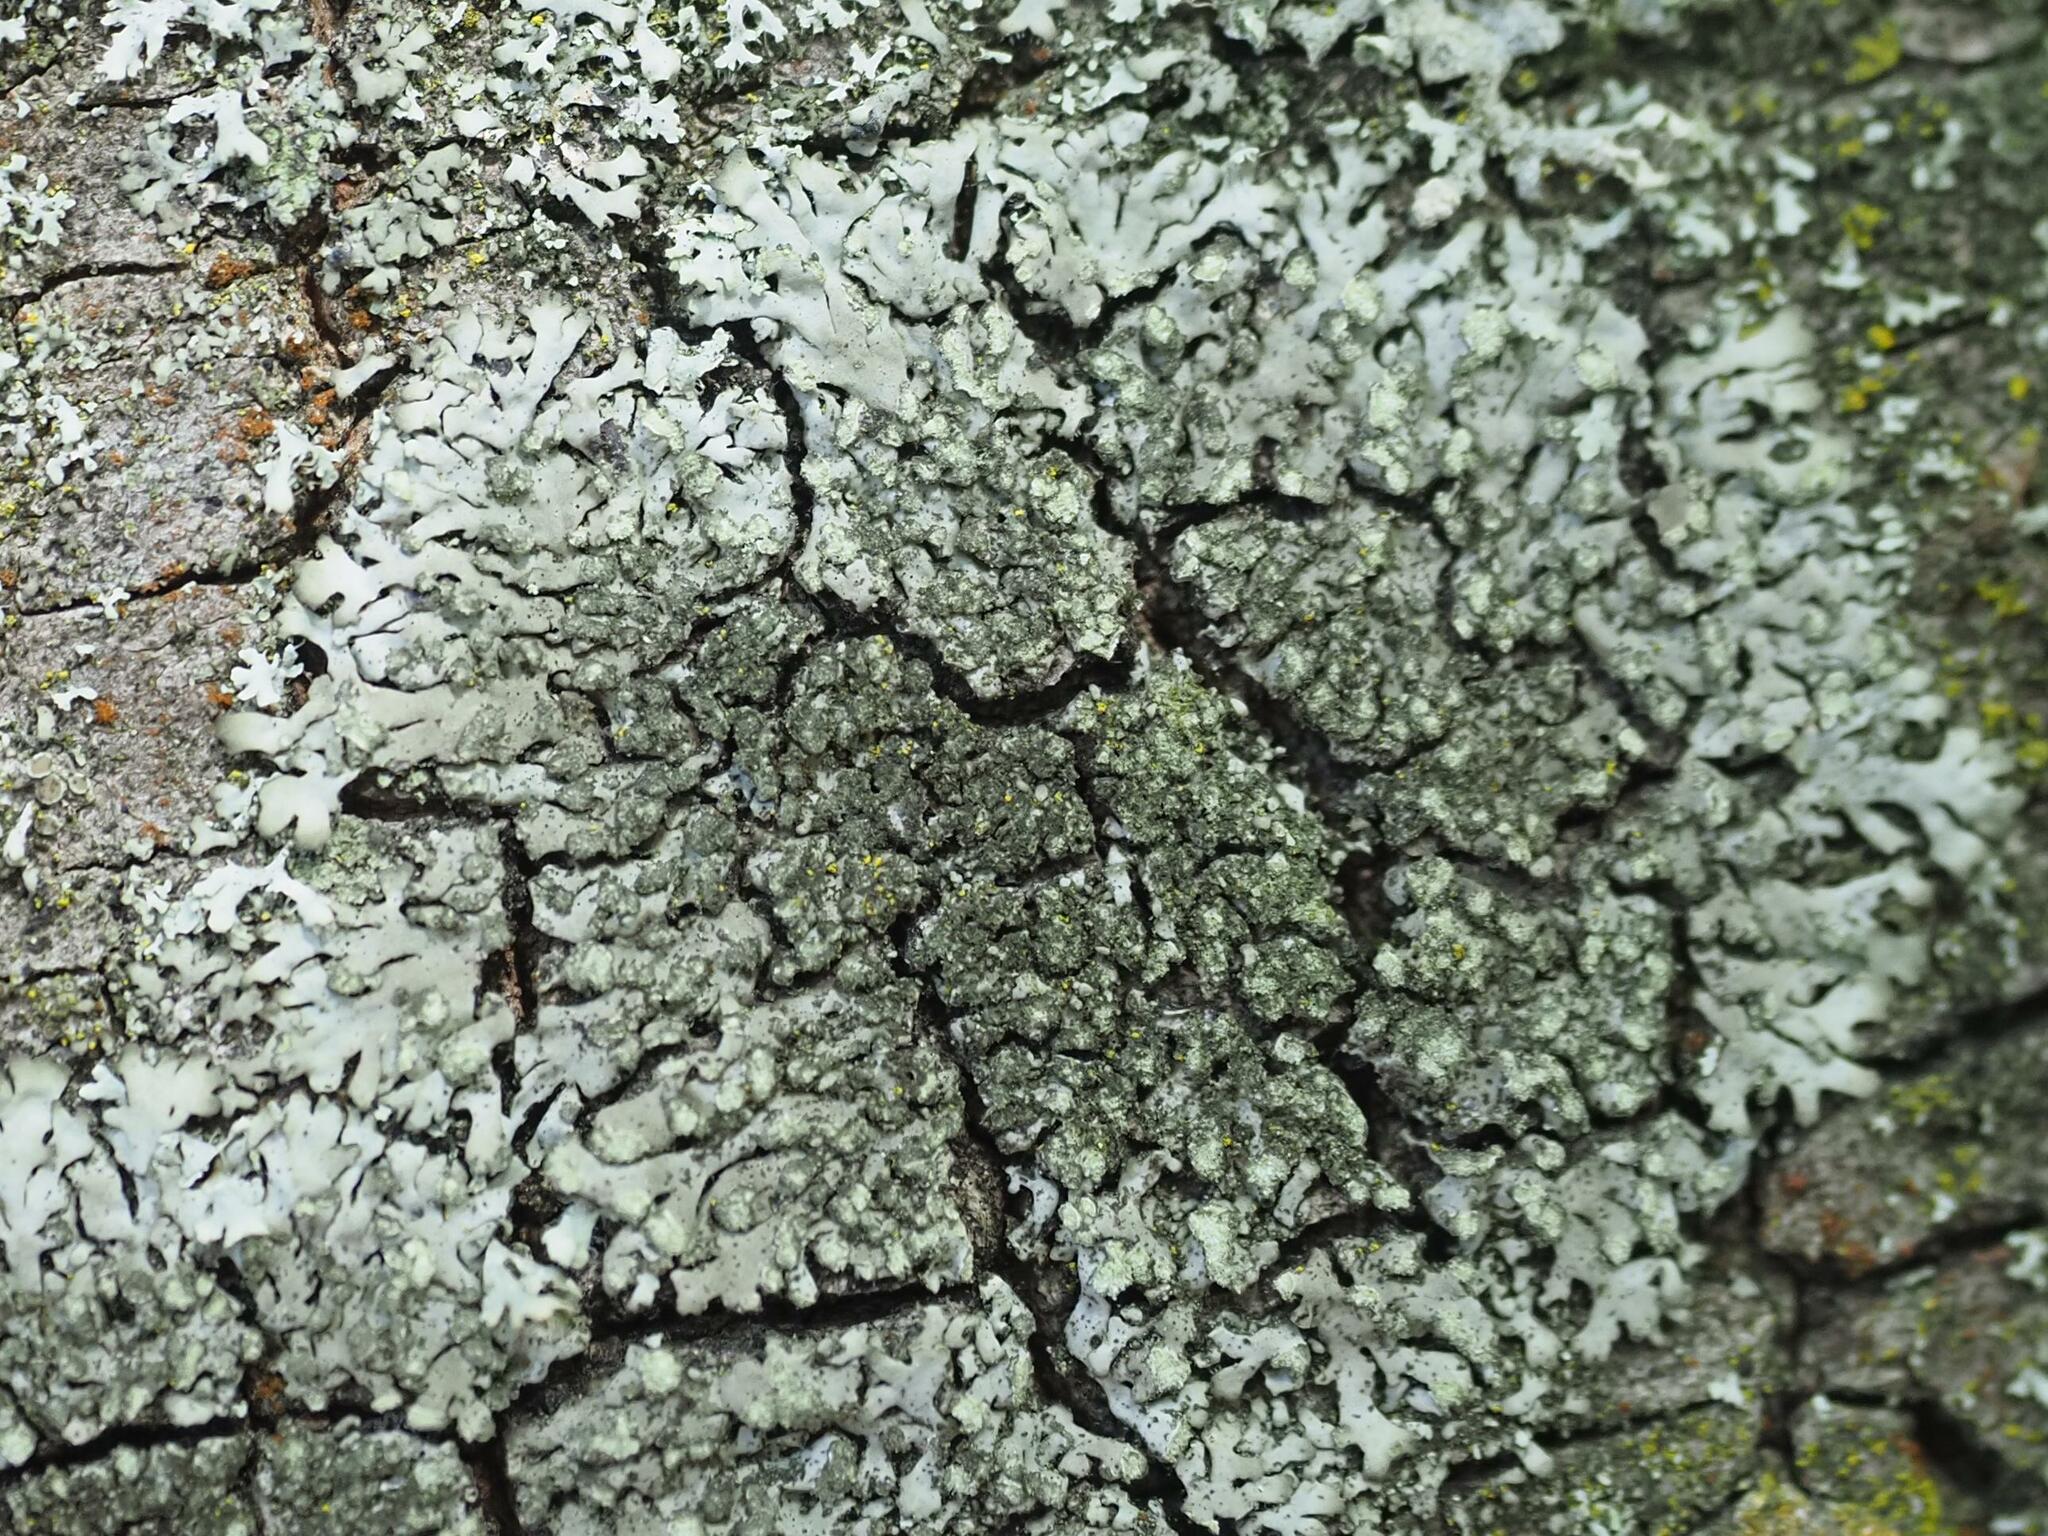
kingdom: Fungi
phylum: Ascomycota
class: Lecanoromycetes
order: Caliciales
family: Physciaceae
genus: Phaeophyscia
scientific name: Phaeophyscia orbicularis
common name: Mealy shadow lichen
